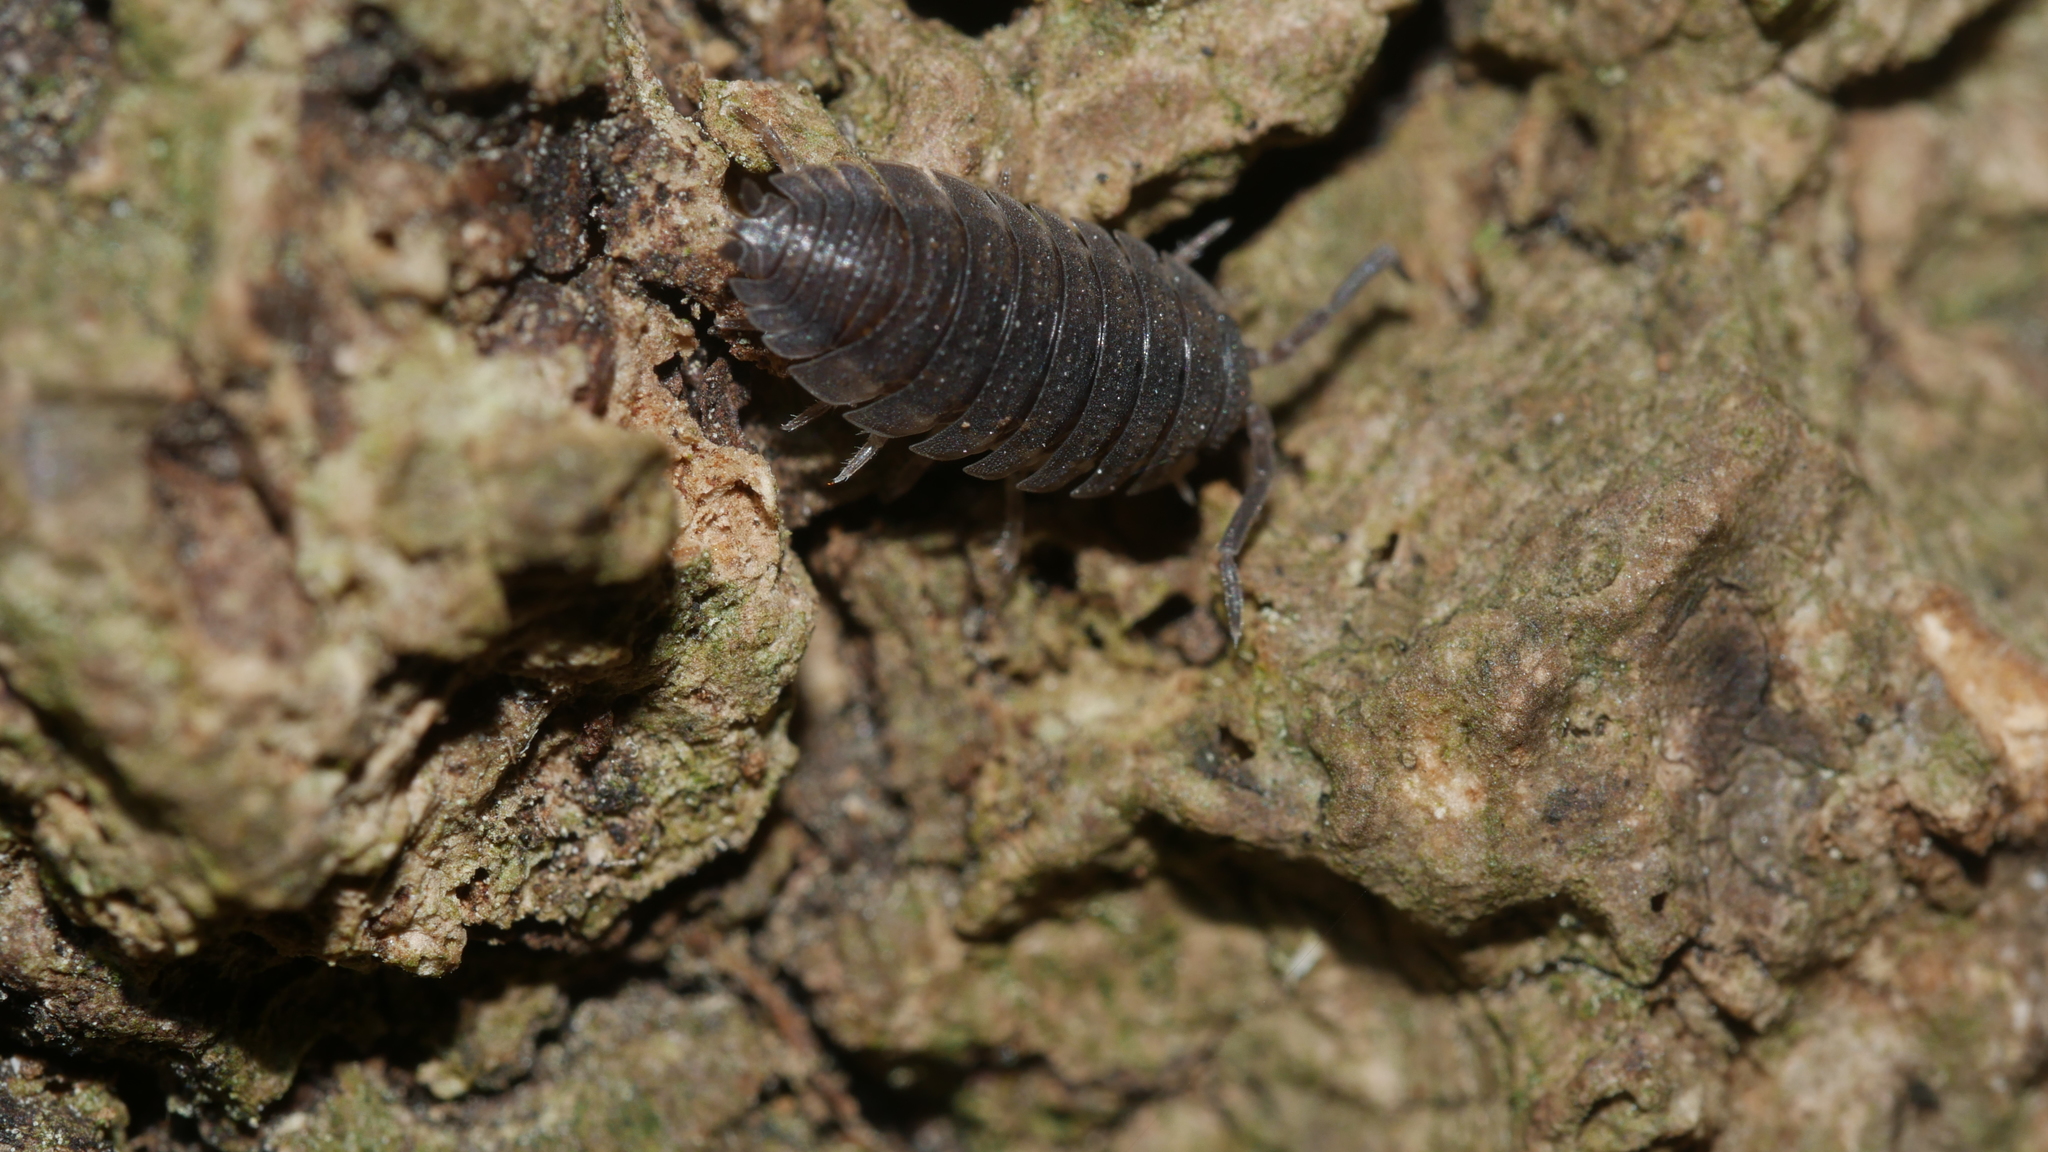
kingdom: Animalia
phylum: Arthropoda
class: Malacostraca
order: Isopoda
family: Porcellionidae
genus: Porcellio
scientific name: Porcellio scaber
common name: Common rough woodlouse
